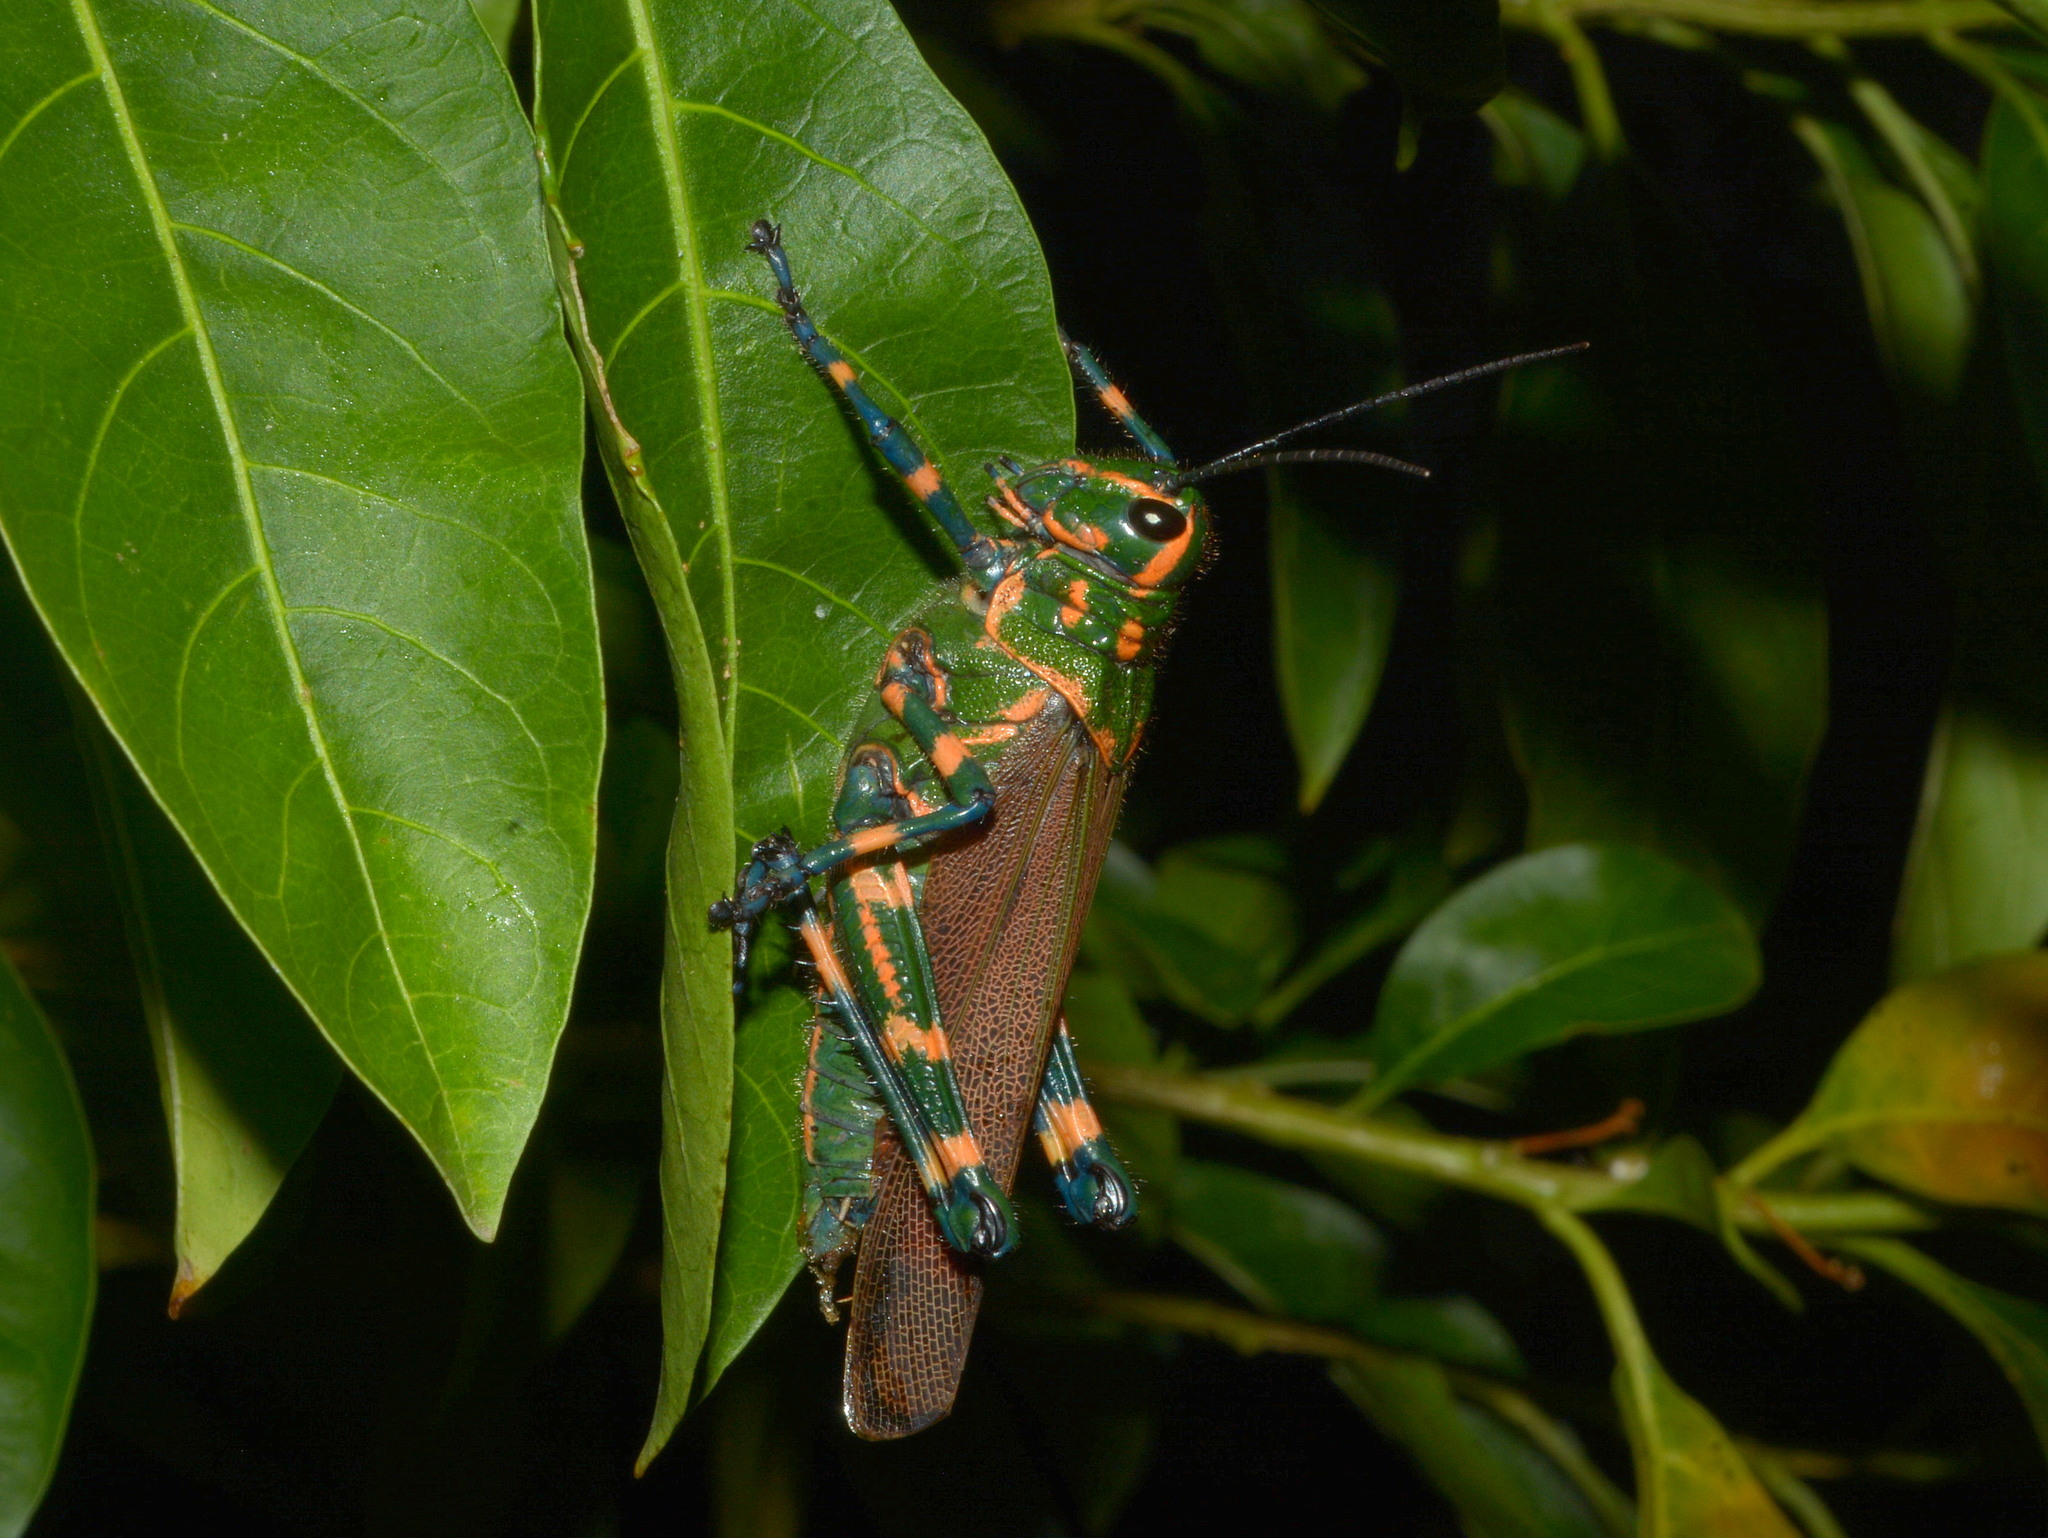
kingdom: Animalia
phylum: Arthropoda
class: Insecta
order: Orthoptera
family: Romaleidae
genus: Chromacris
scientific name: Chromacris speciosa
